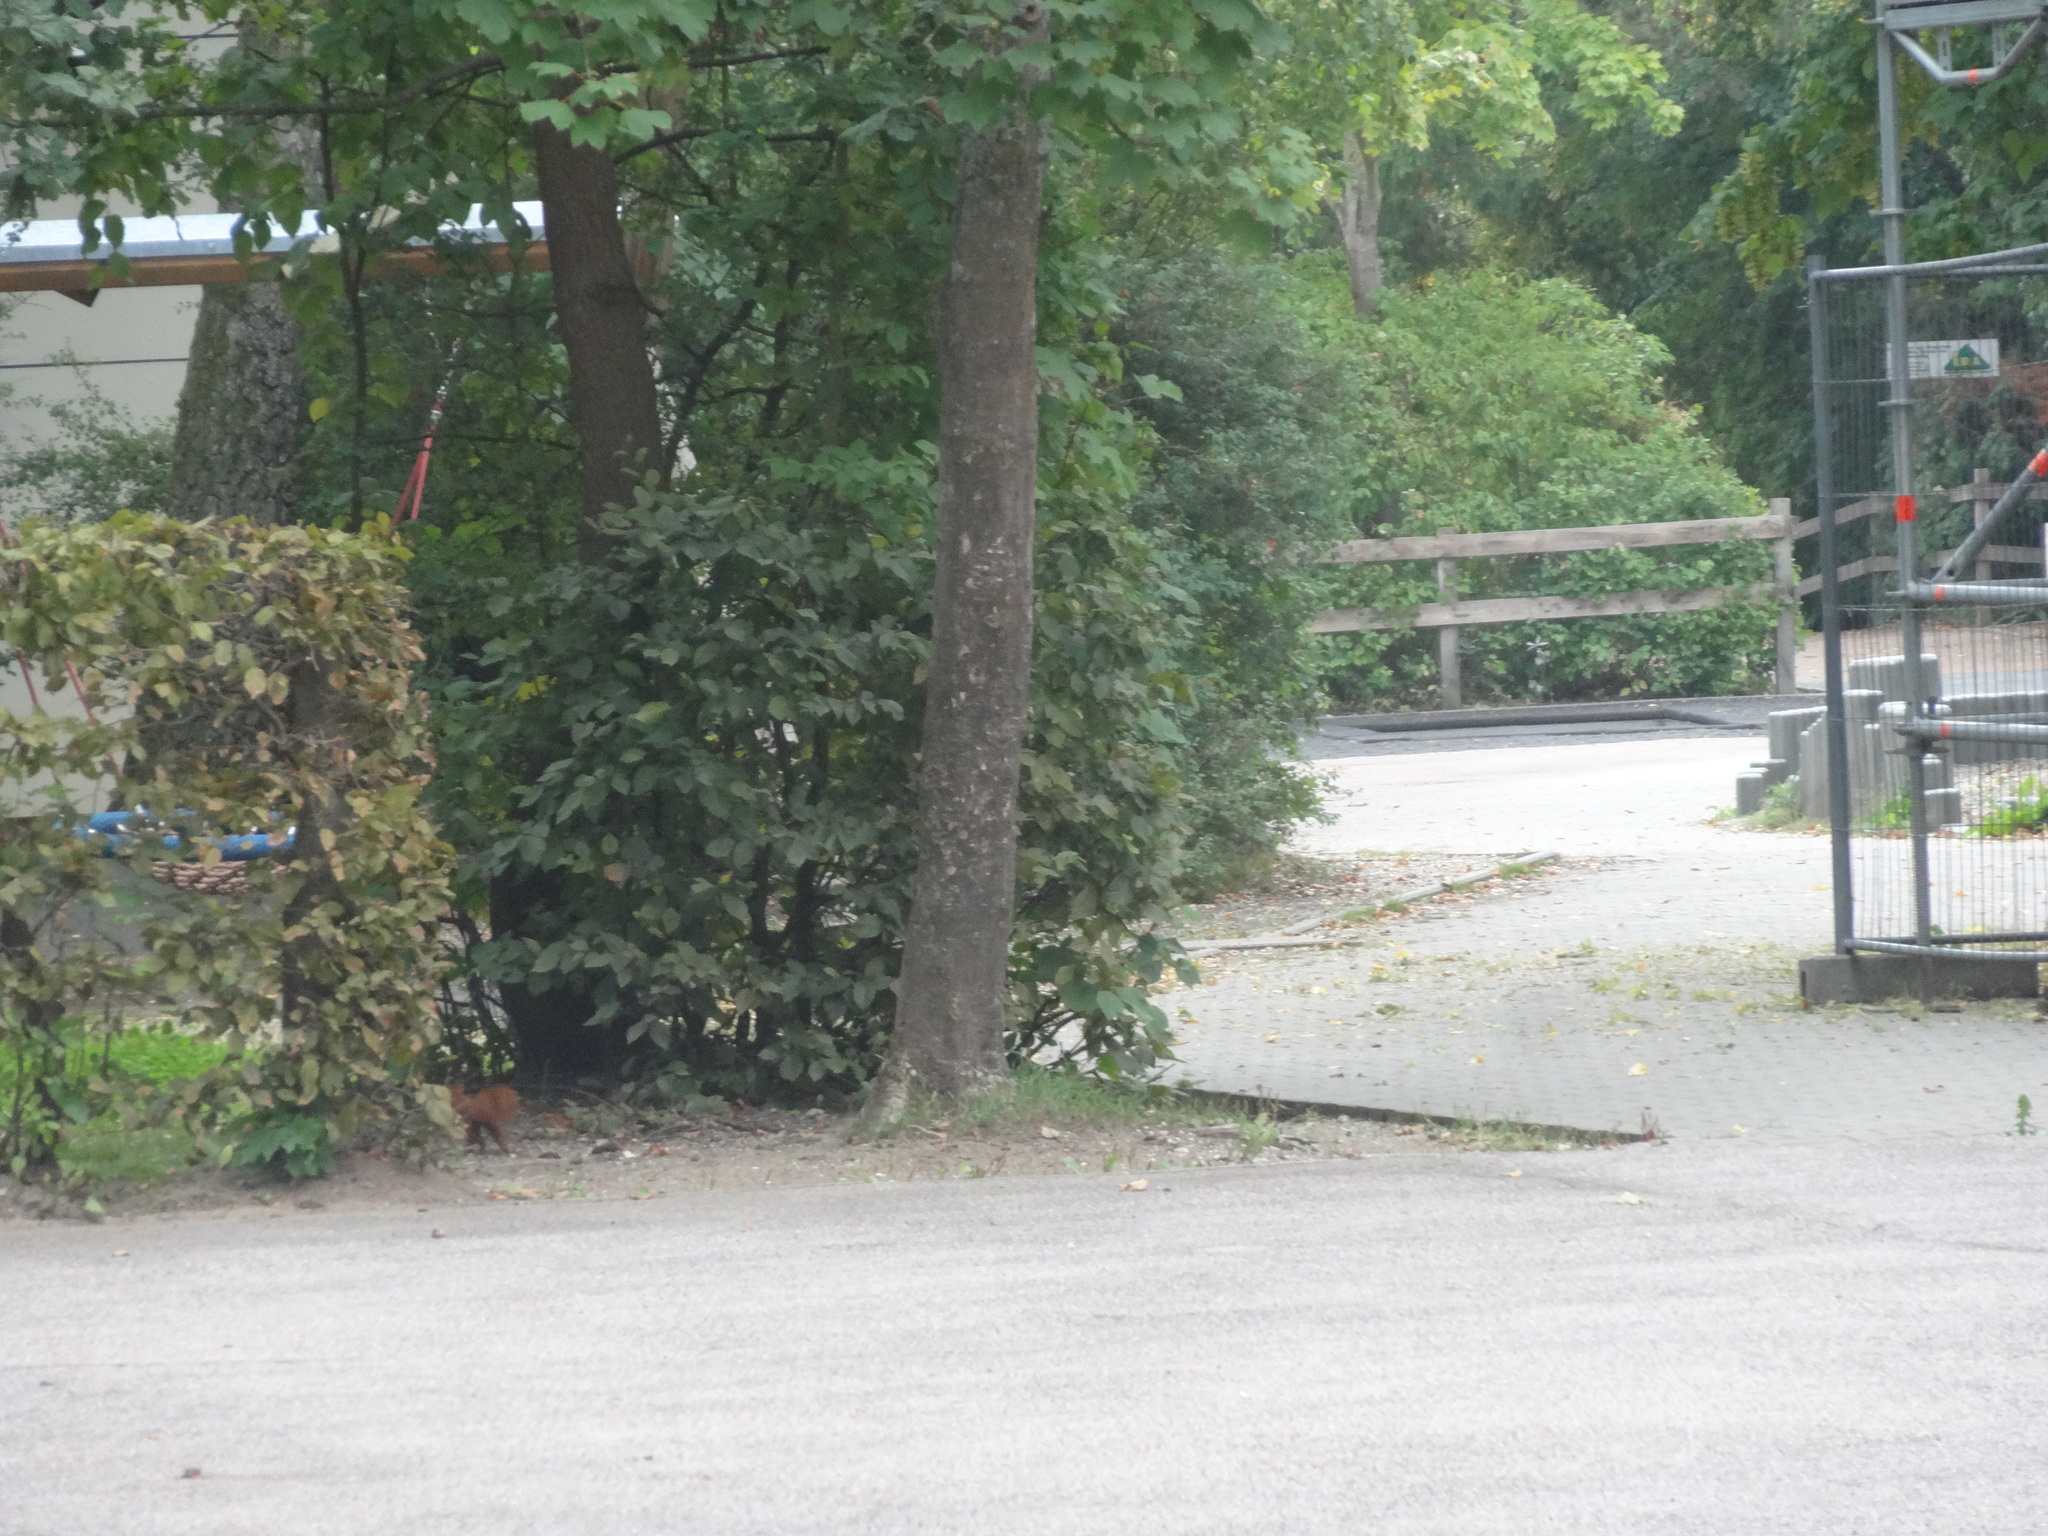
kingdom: Animalia
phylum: Chordata
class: Mammalia
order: Rodentia
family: Sciuridae
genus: Sciurus
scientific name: Sciurus vulgaris
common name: Eurasian red squirrel
